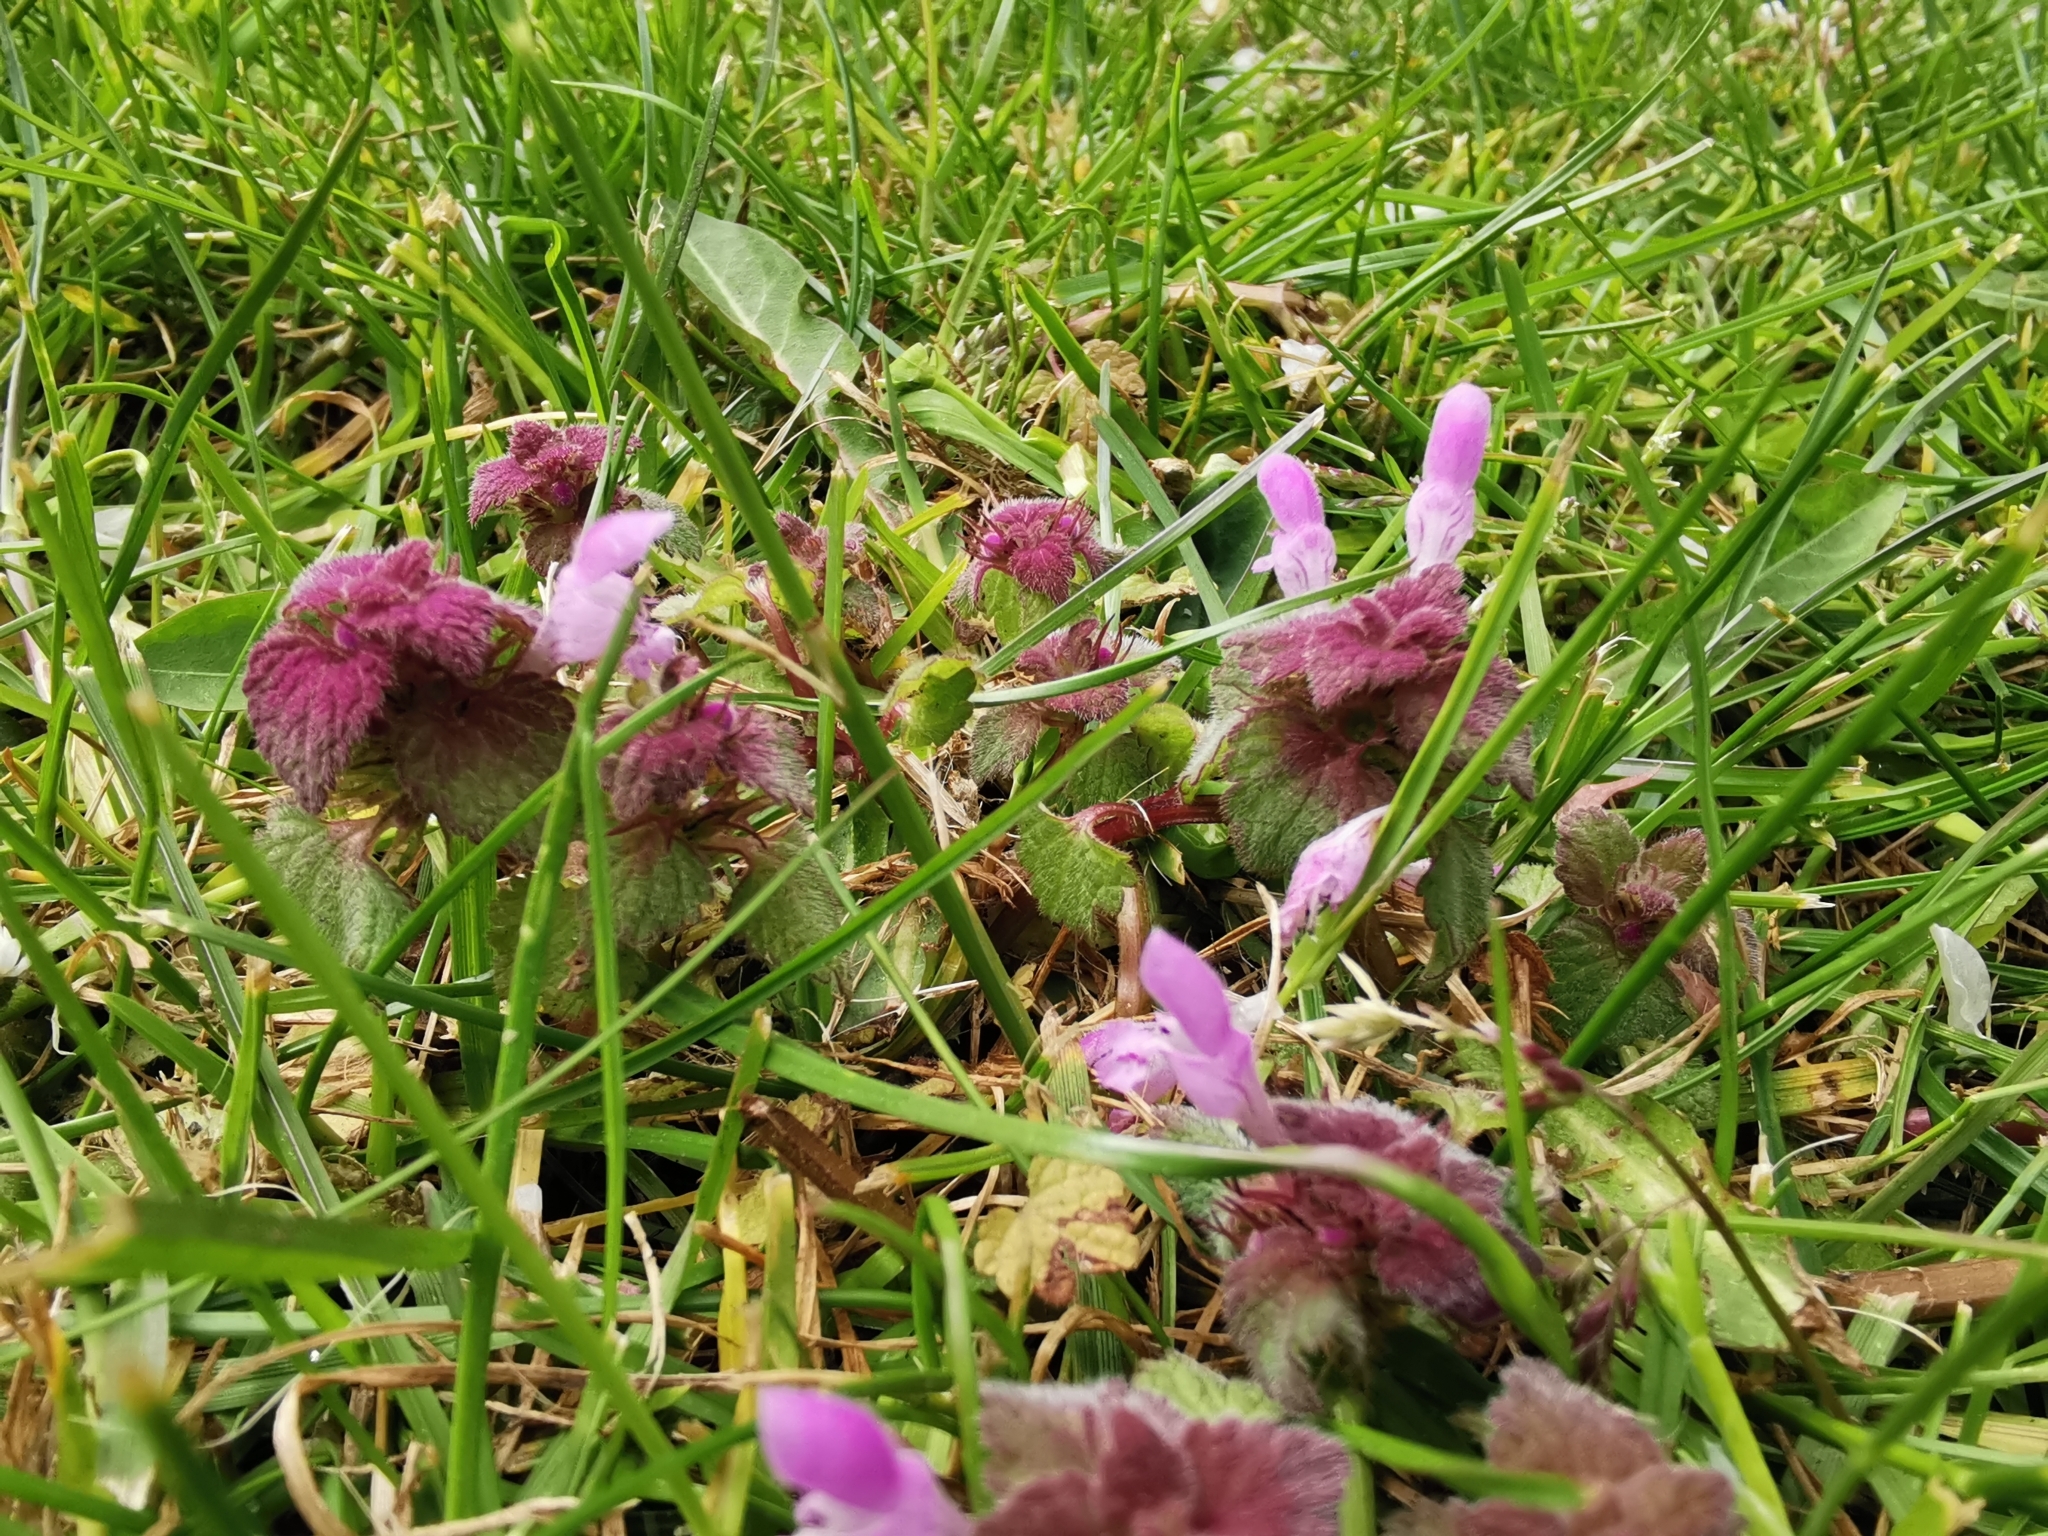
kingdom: Plantae
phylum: Tracheophyta
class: Magnoliopsida
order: Lamiales
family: Lamiaceae
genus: Lamium
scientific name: Lamium purpureum
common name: Red dead-nettle
